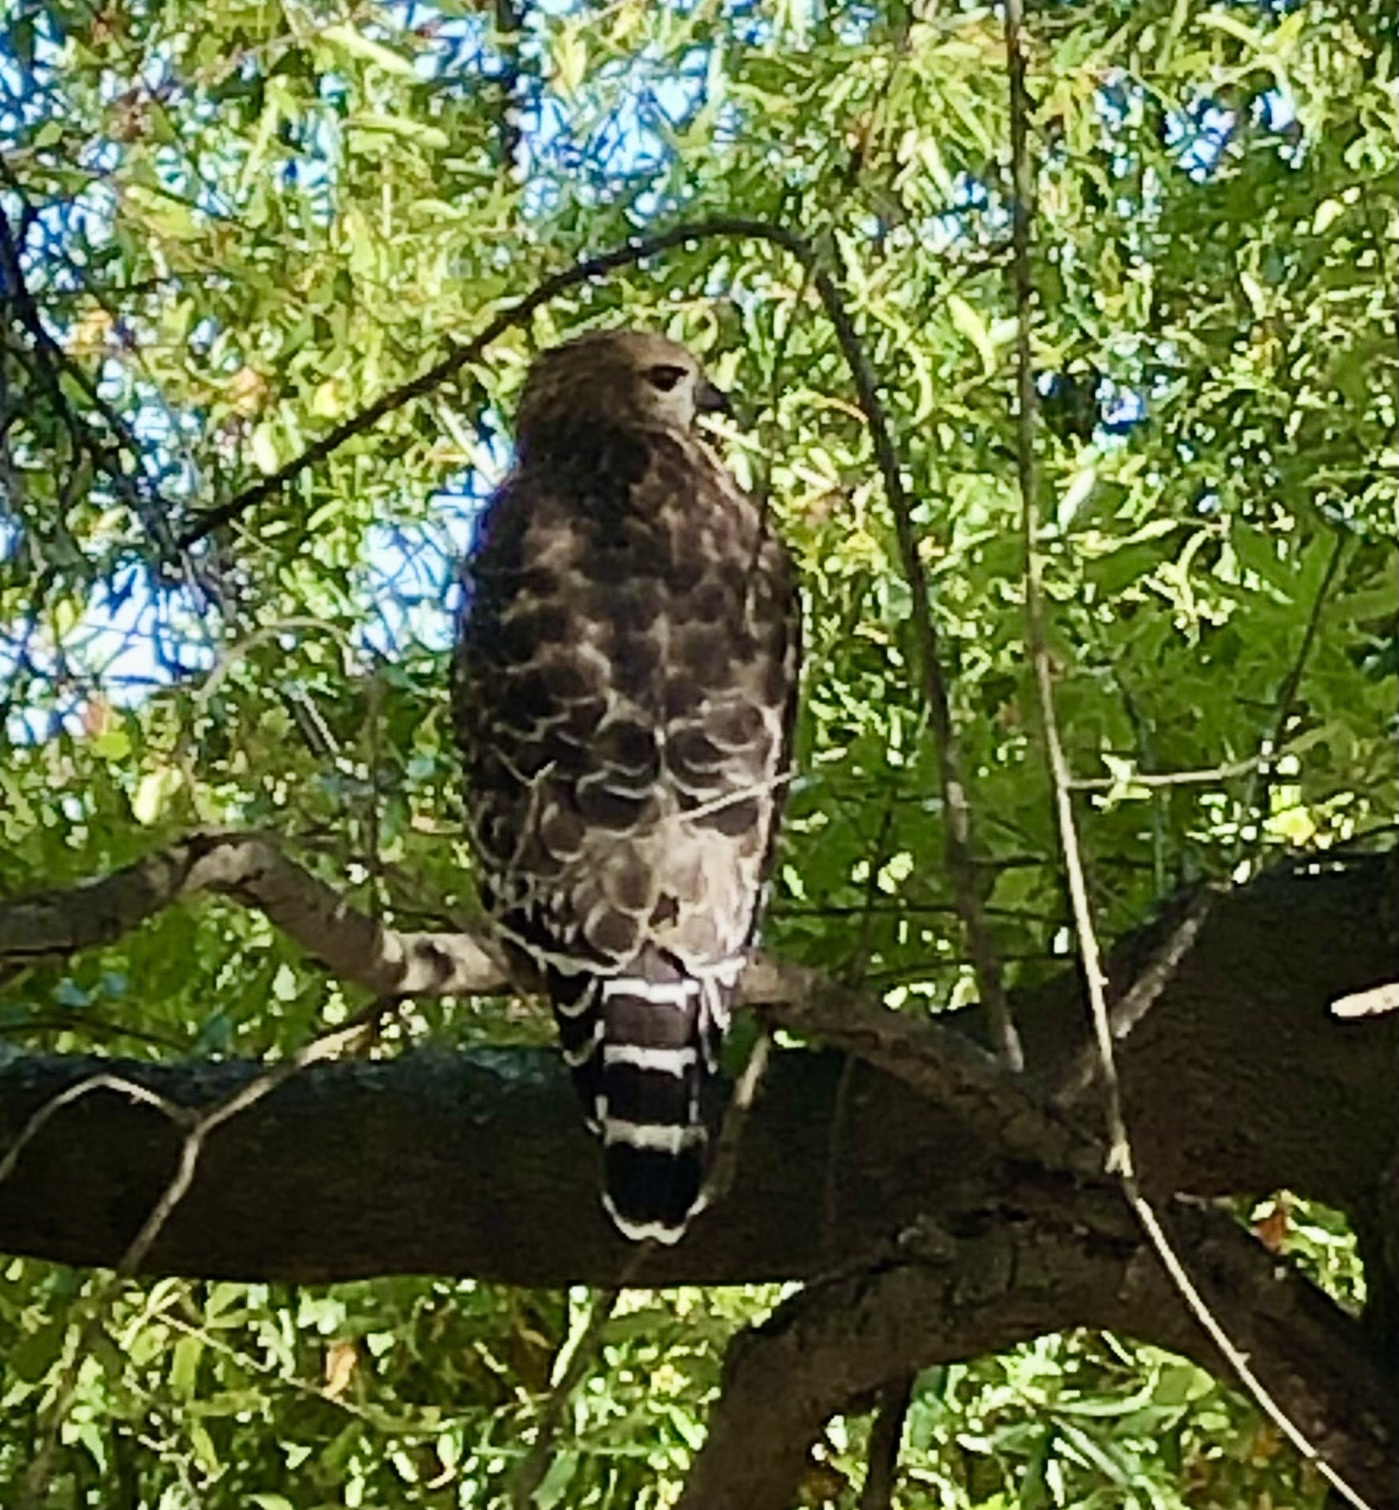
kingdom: Animalia
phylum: Chordata
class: Aves
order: Accipitriformes
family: Accipitridae
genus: Buteo
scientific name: Buteo lineatus
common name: Red-shouldered hawk
